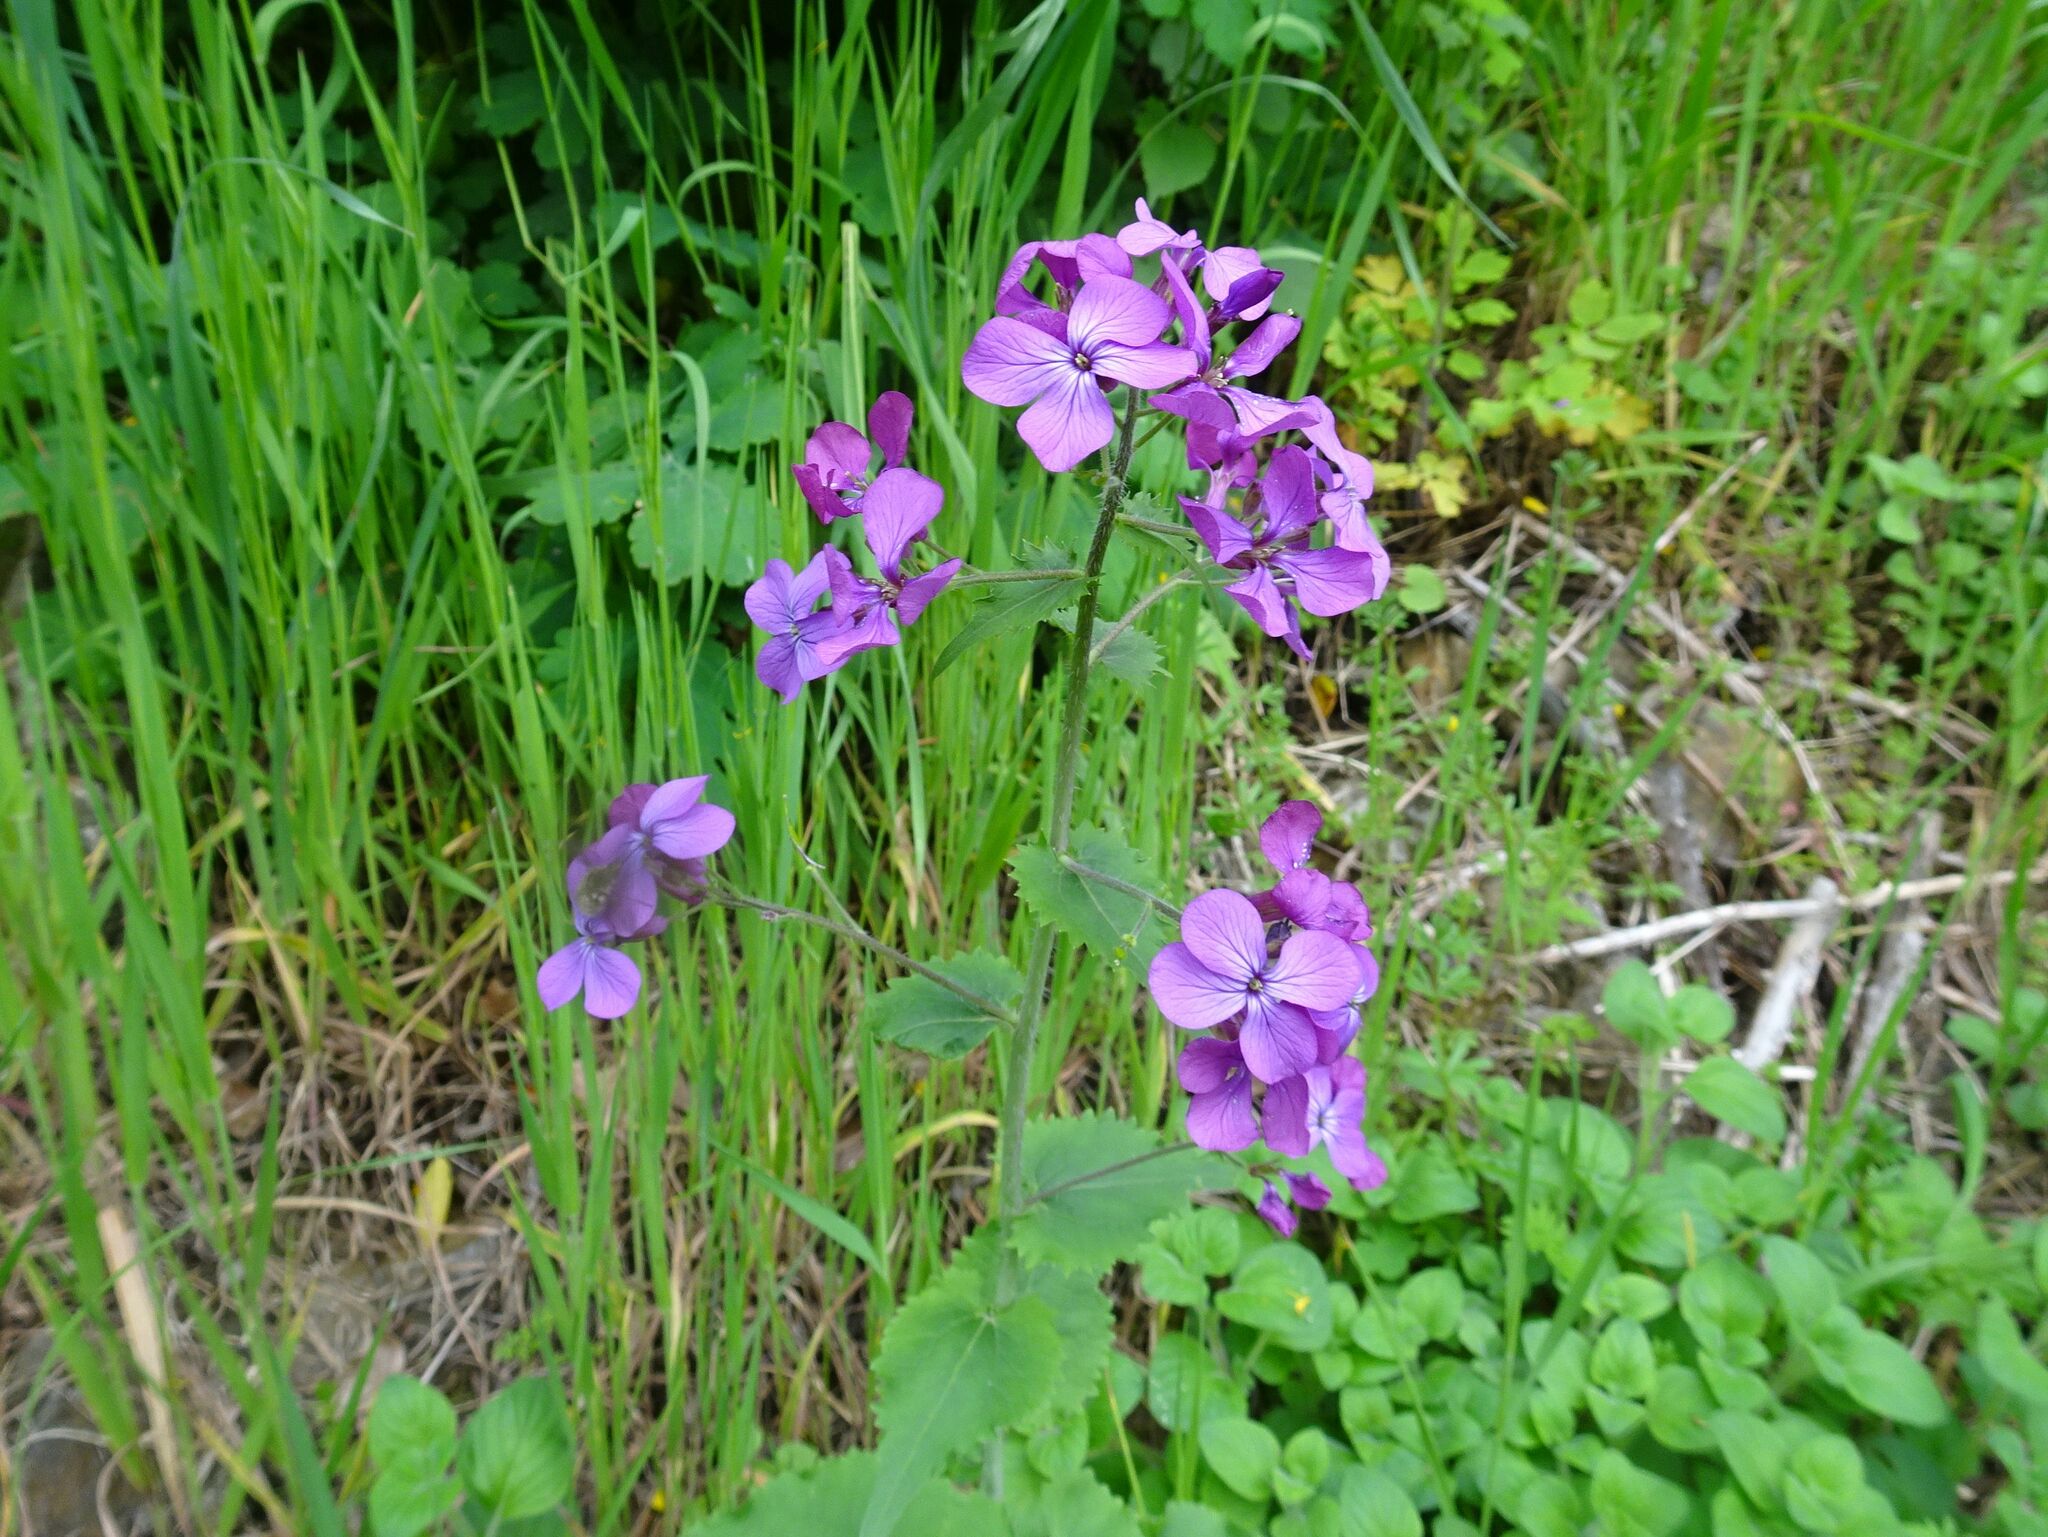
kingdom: Plantae
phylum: Tracheophyta
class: Magnoliopsida
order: Brassicales
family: Brassicaceae
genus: Lunaria
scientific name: Lunaria annua
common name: Honesty
